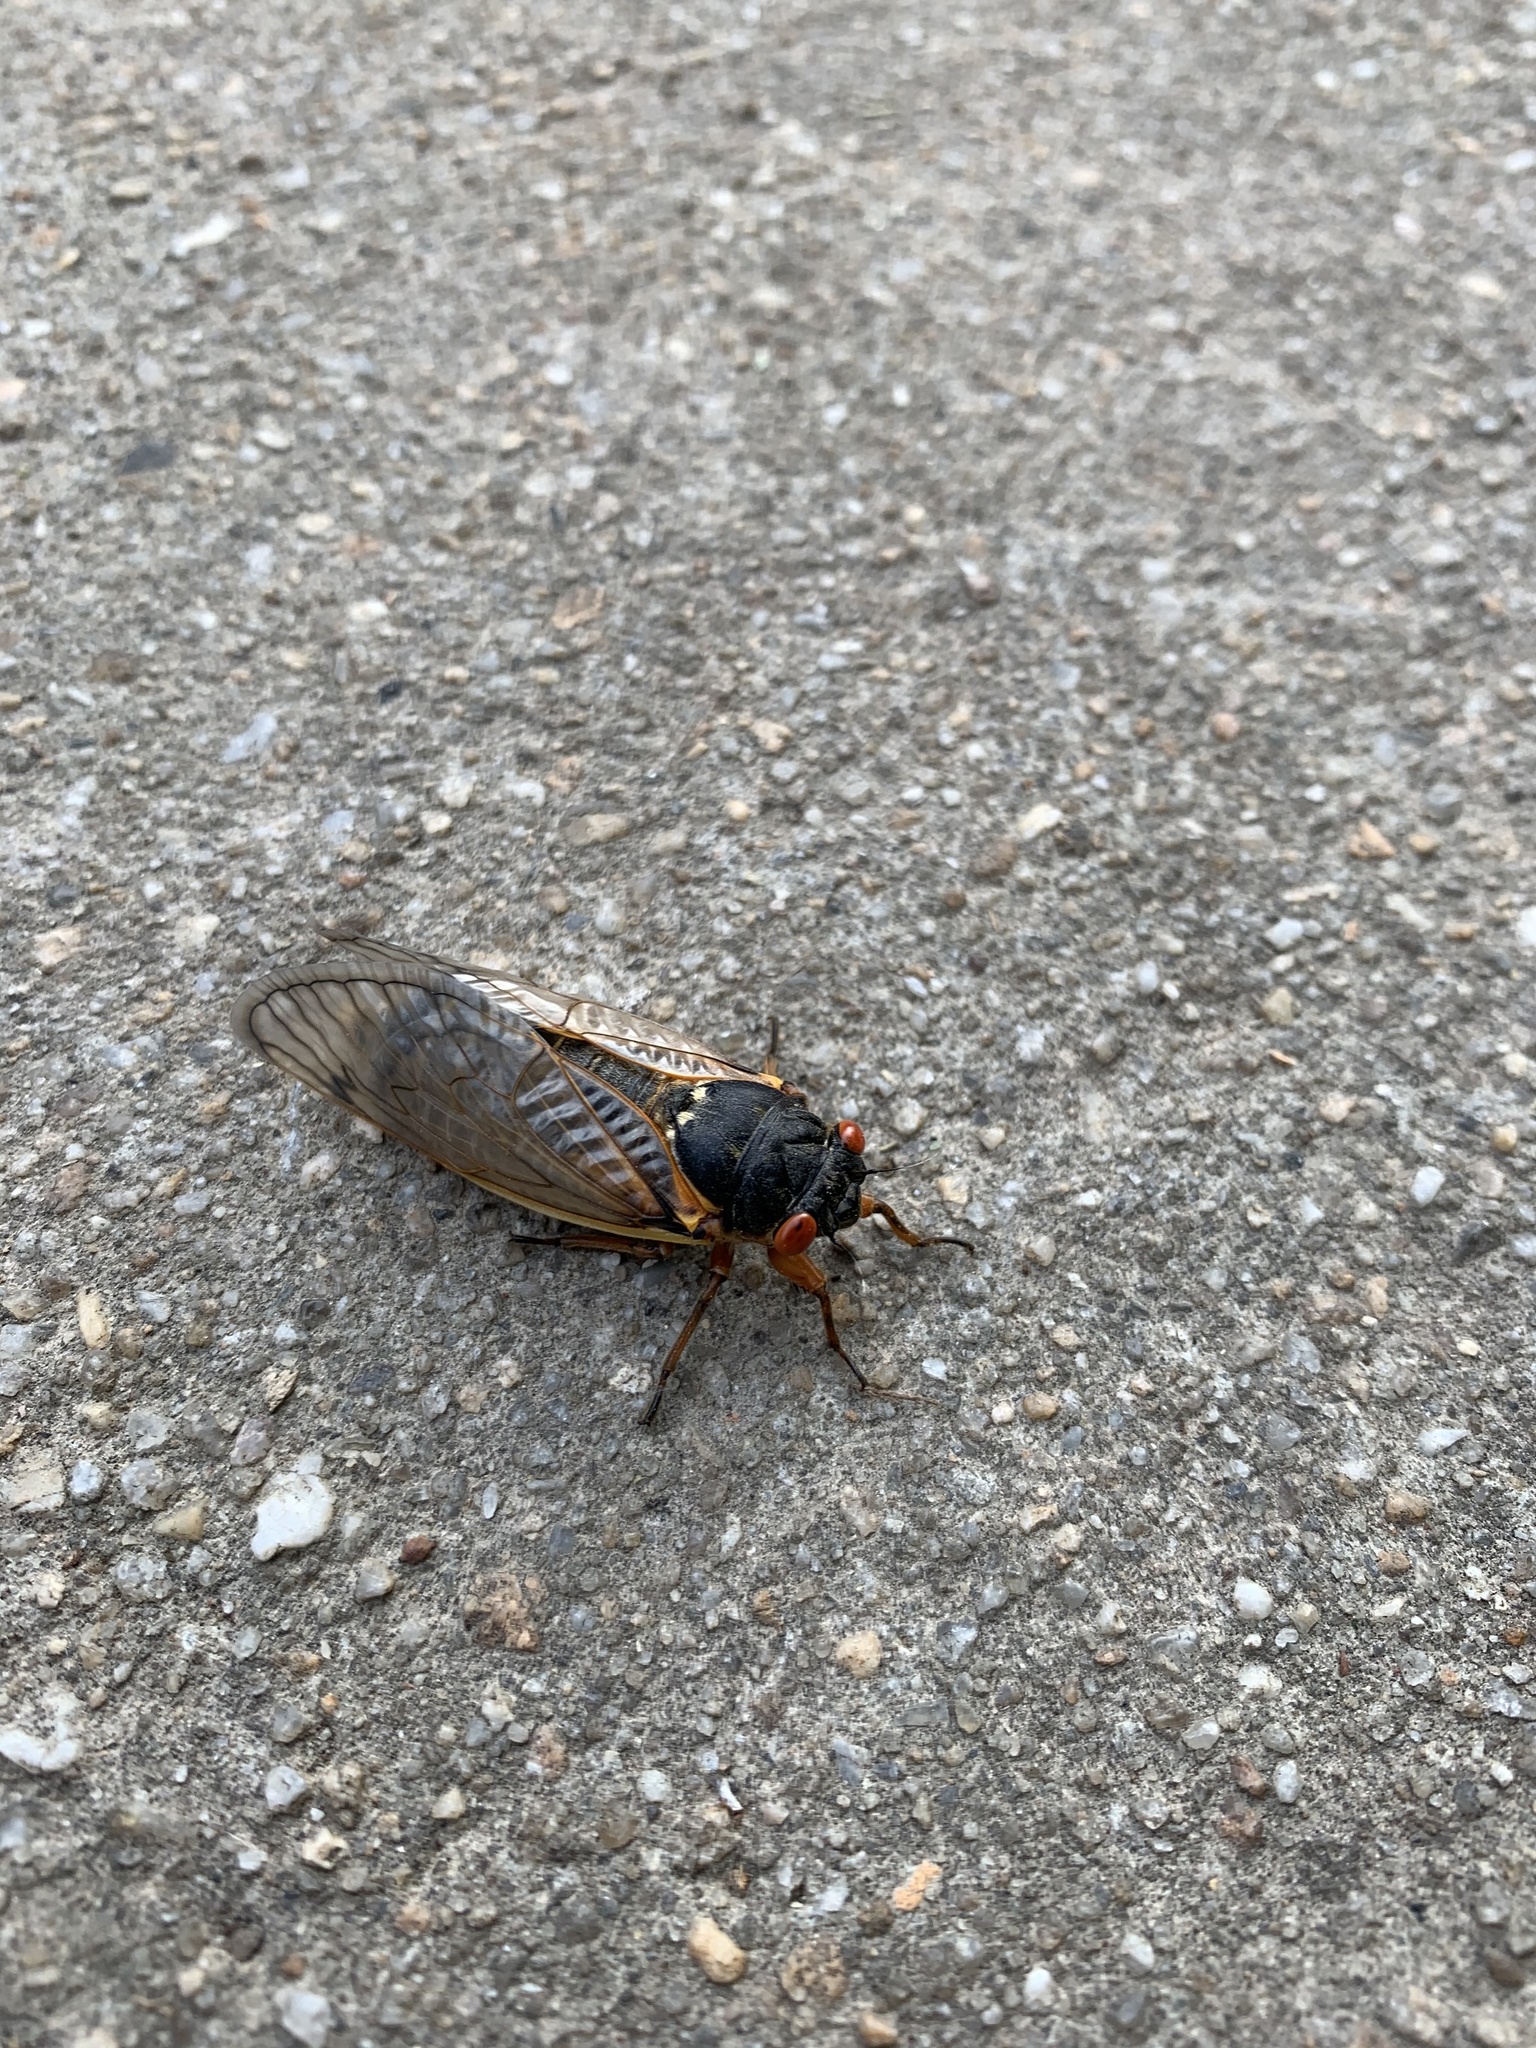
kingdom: Animalia
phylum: Arthropoda
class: Insecta
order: Hemiptera
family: Cicadidae
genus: Magicicada
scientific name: Magicicada septendecim
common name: Periodical cicada
